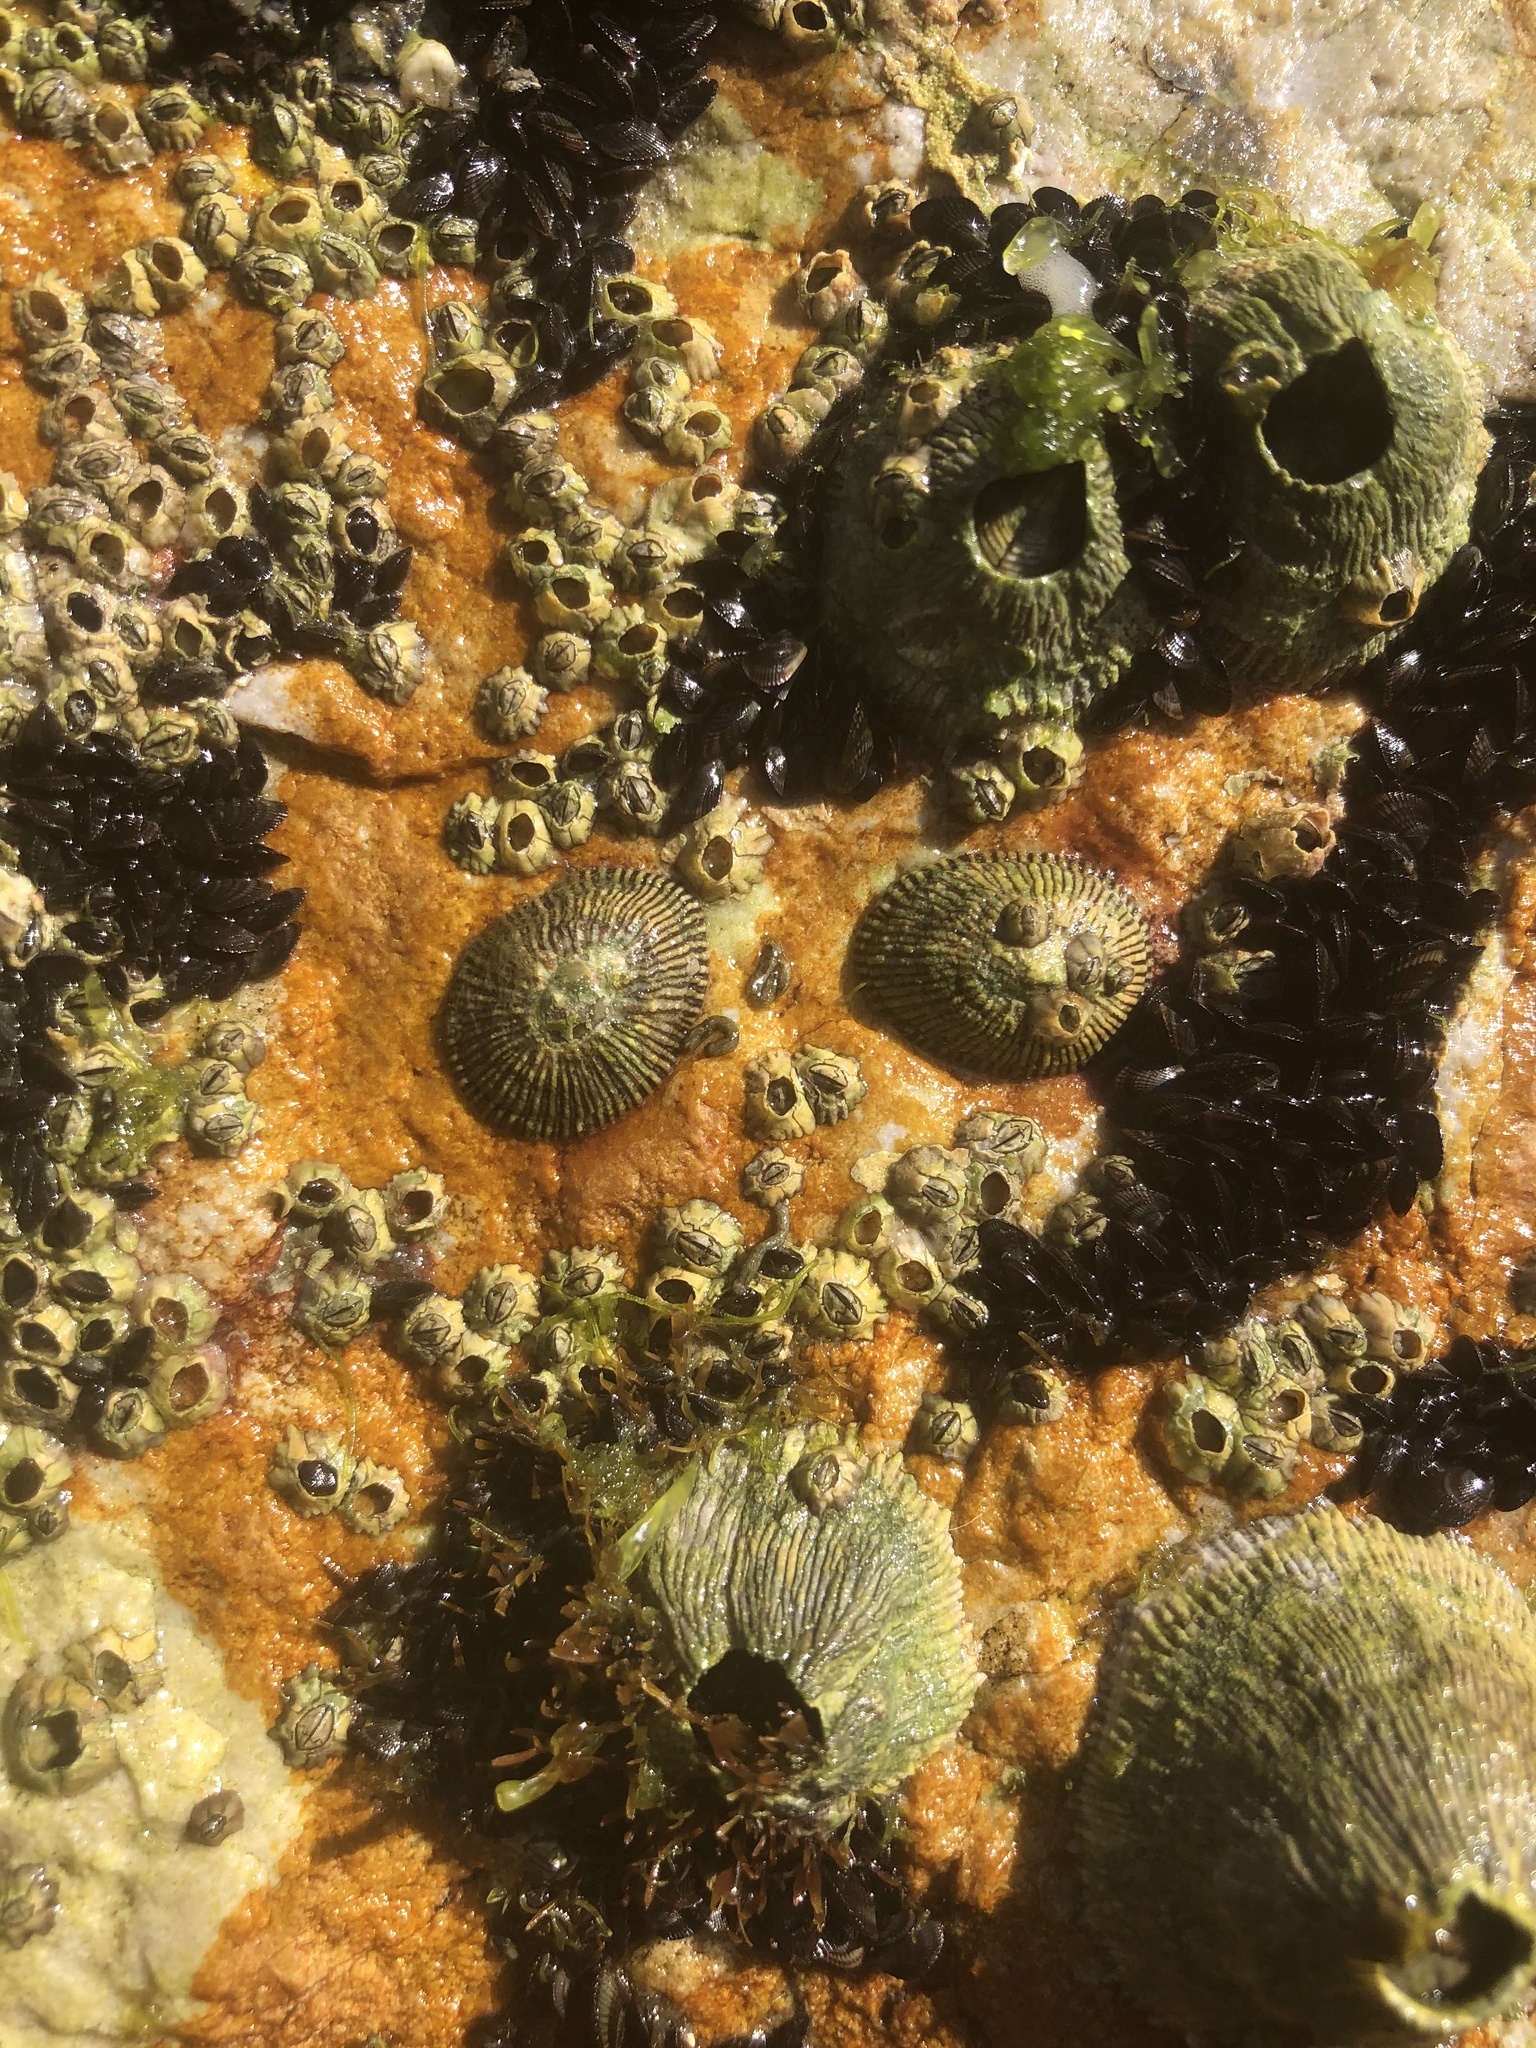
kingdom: Animalia
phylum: Mollusca
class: Gastropoda
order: Siphonariida
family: Siphonariidae
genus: Siphonaria
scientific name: Siphonaria naufragum
